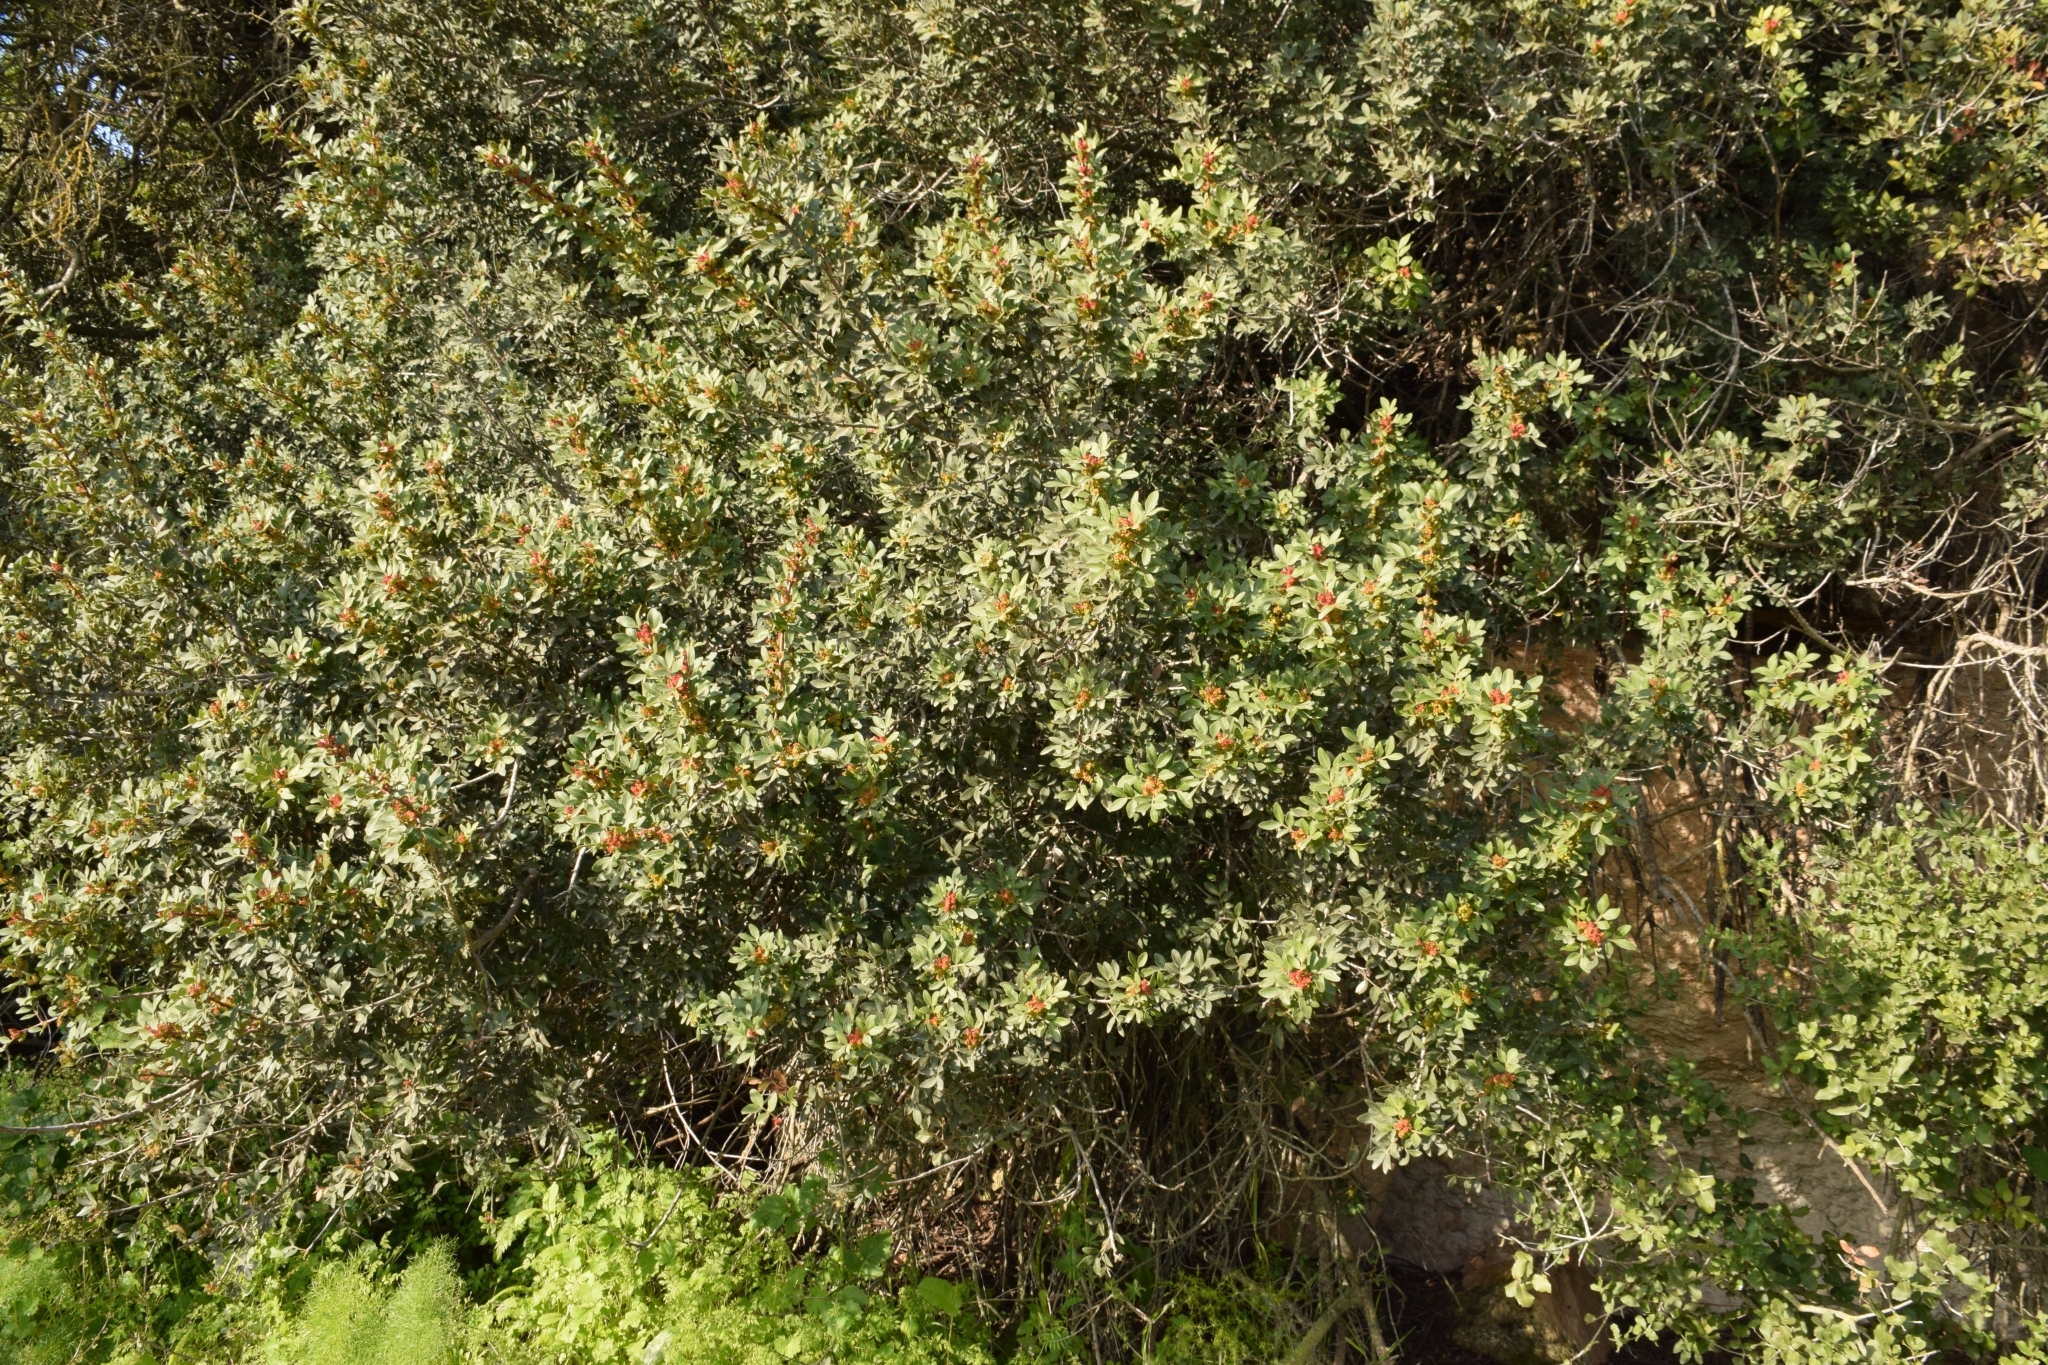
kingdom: Plantae
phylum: Tracheophyta
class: Magnoliopsida
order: Sapindales
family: Anacardiaceae
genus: Pistacia
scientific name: Pistacia lentiscus
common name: Lentisk
